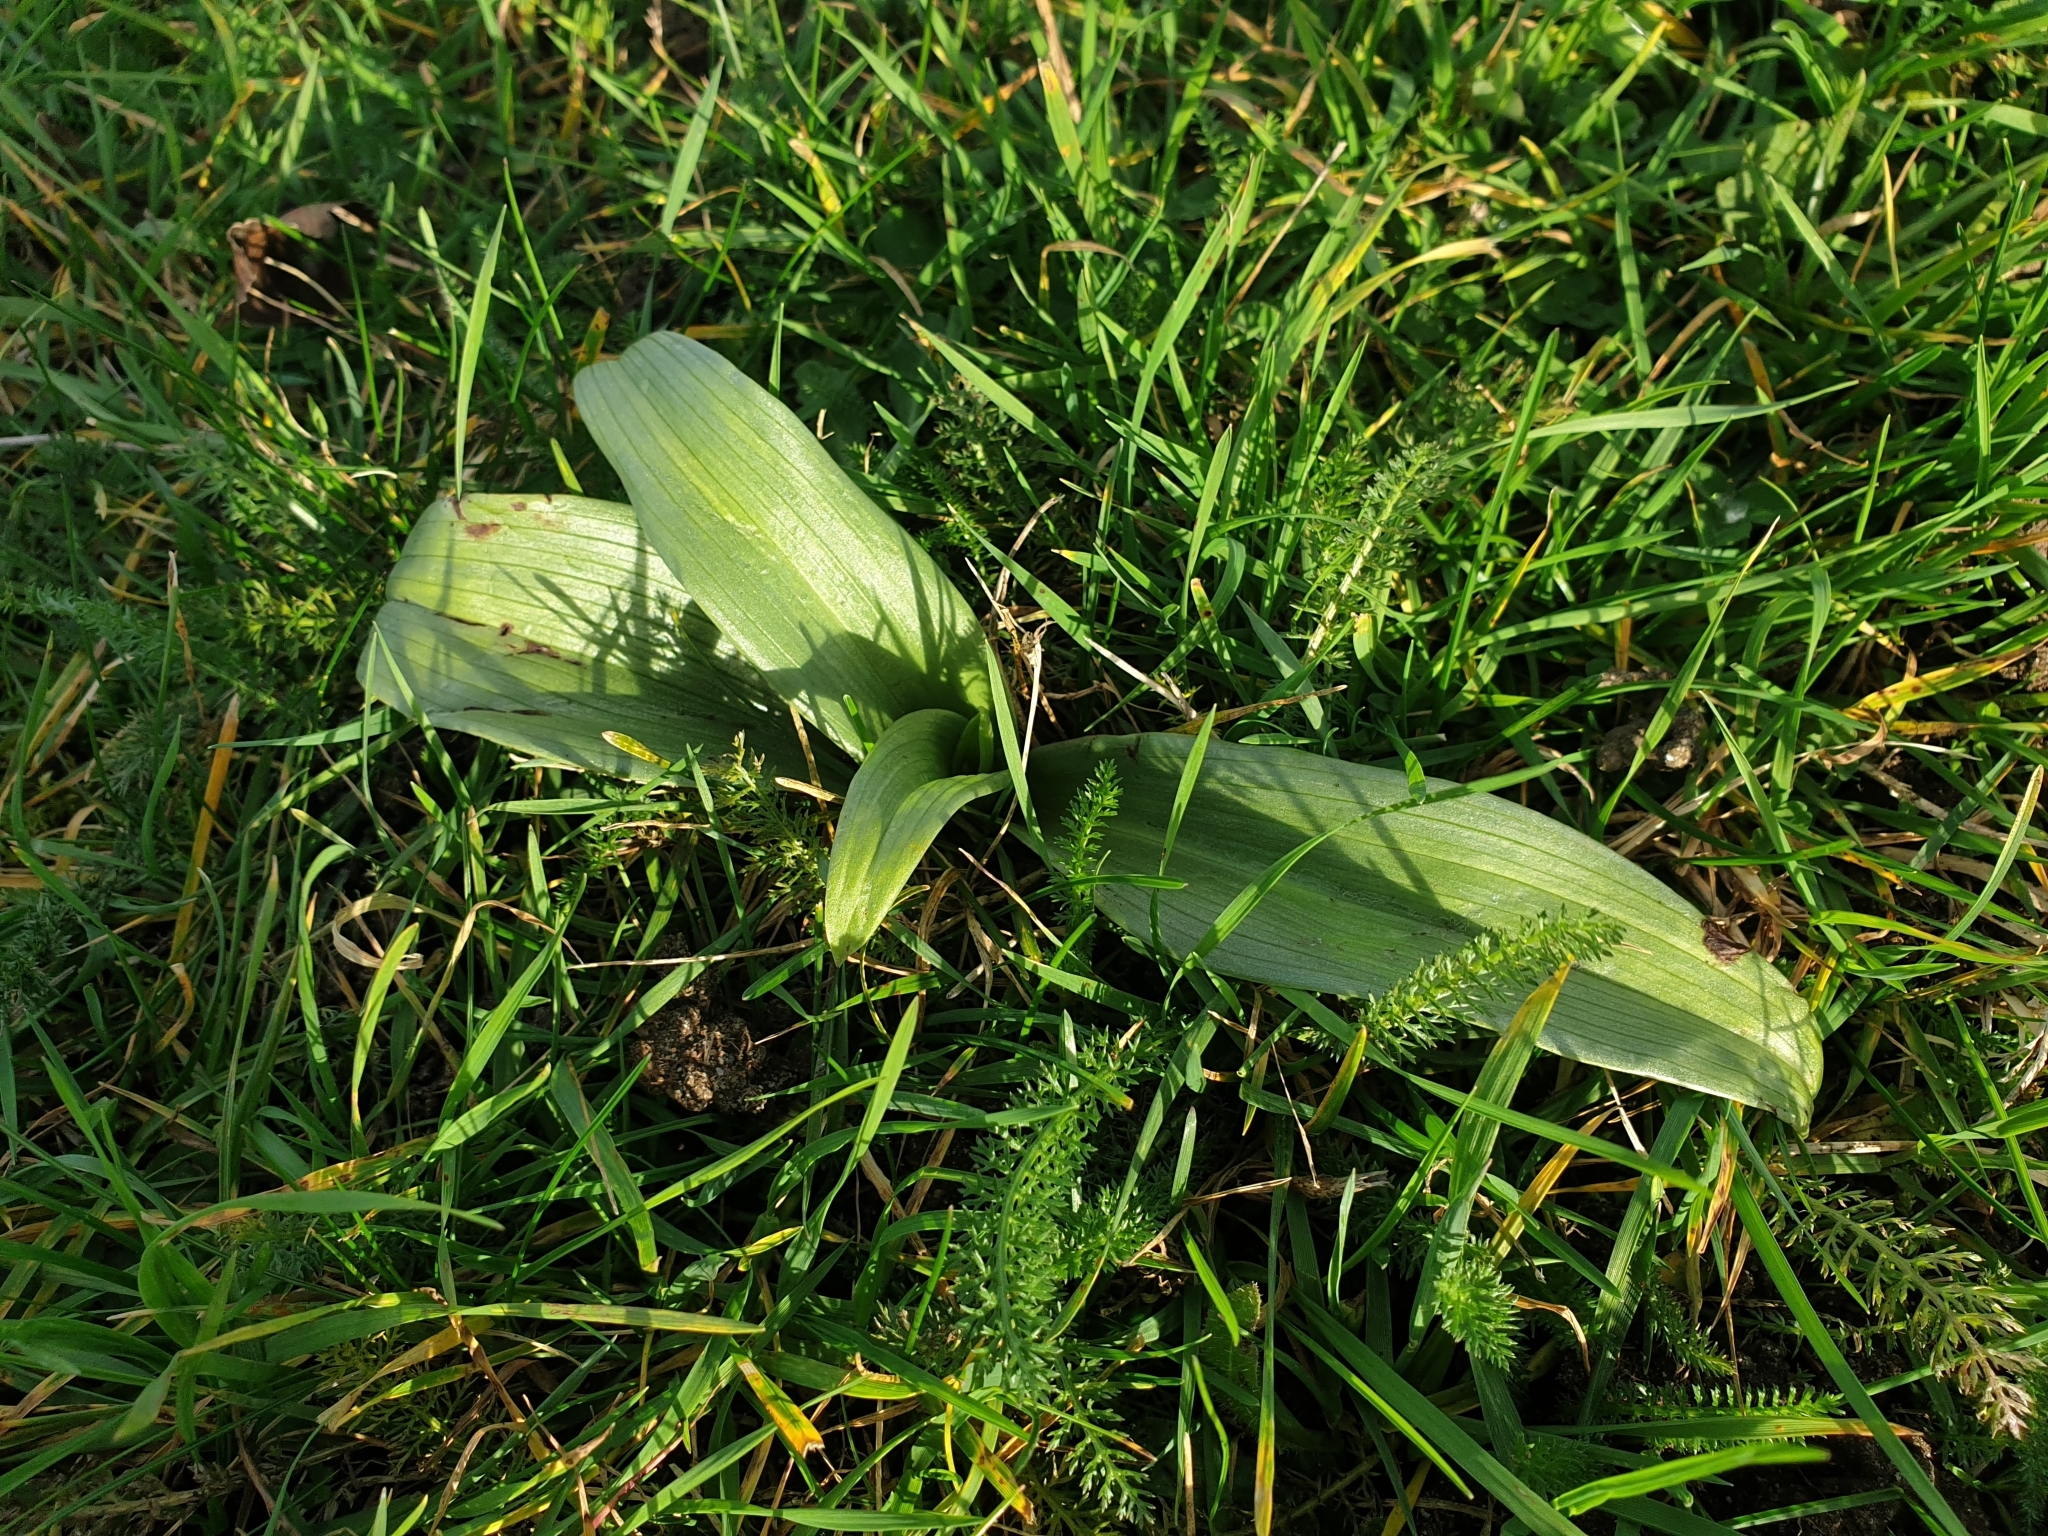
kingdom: Plantae
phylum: Tracheophyta
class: Liliopsida
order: Asparagales
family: Orchidaceae
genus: Himantoglossum
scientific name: Himantoglossum hircinum
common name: Lizard orchid
